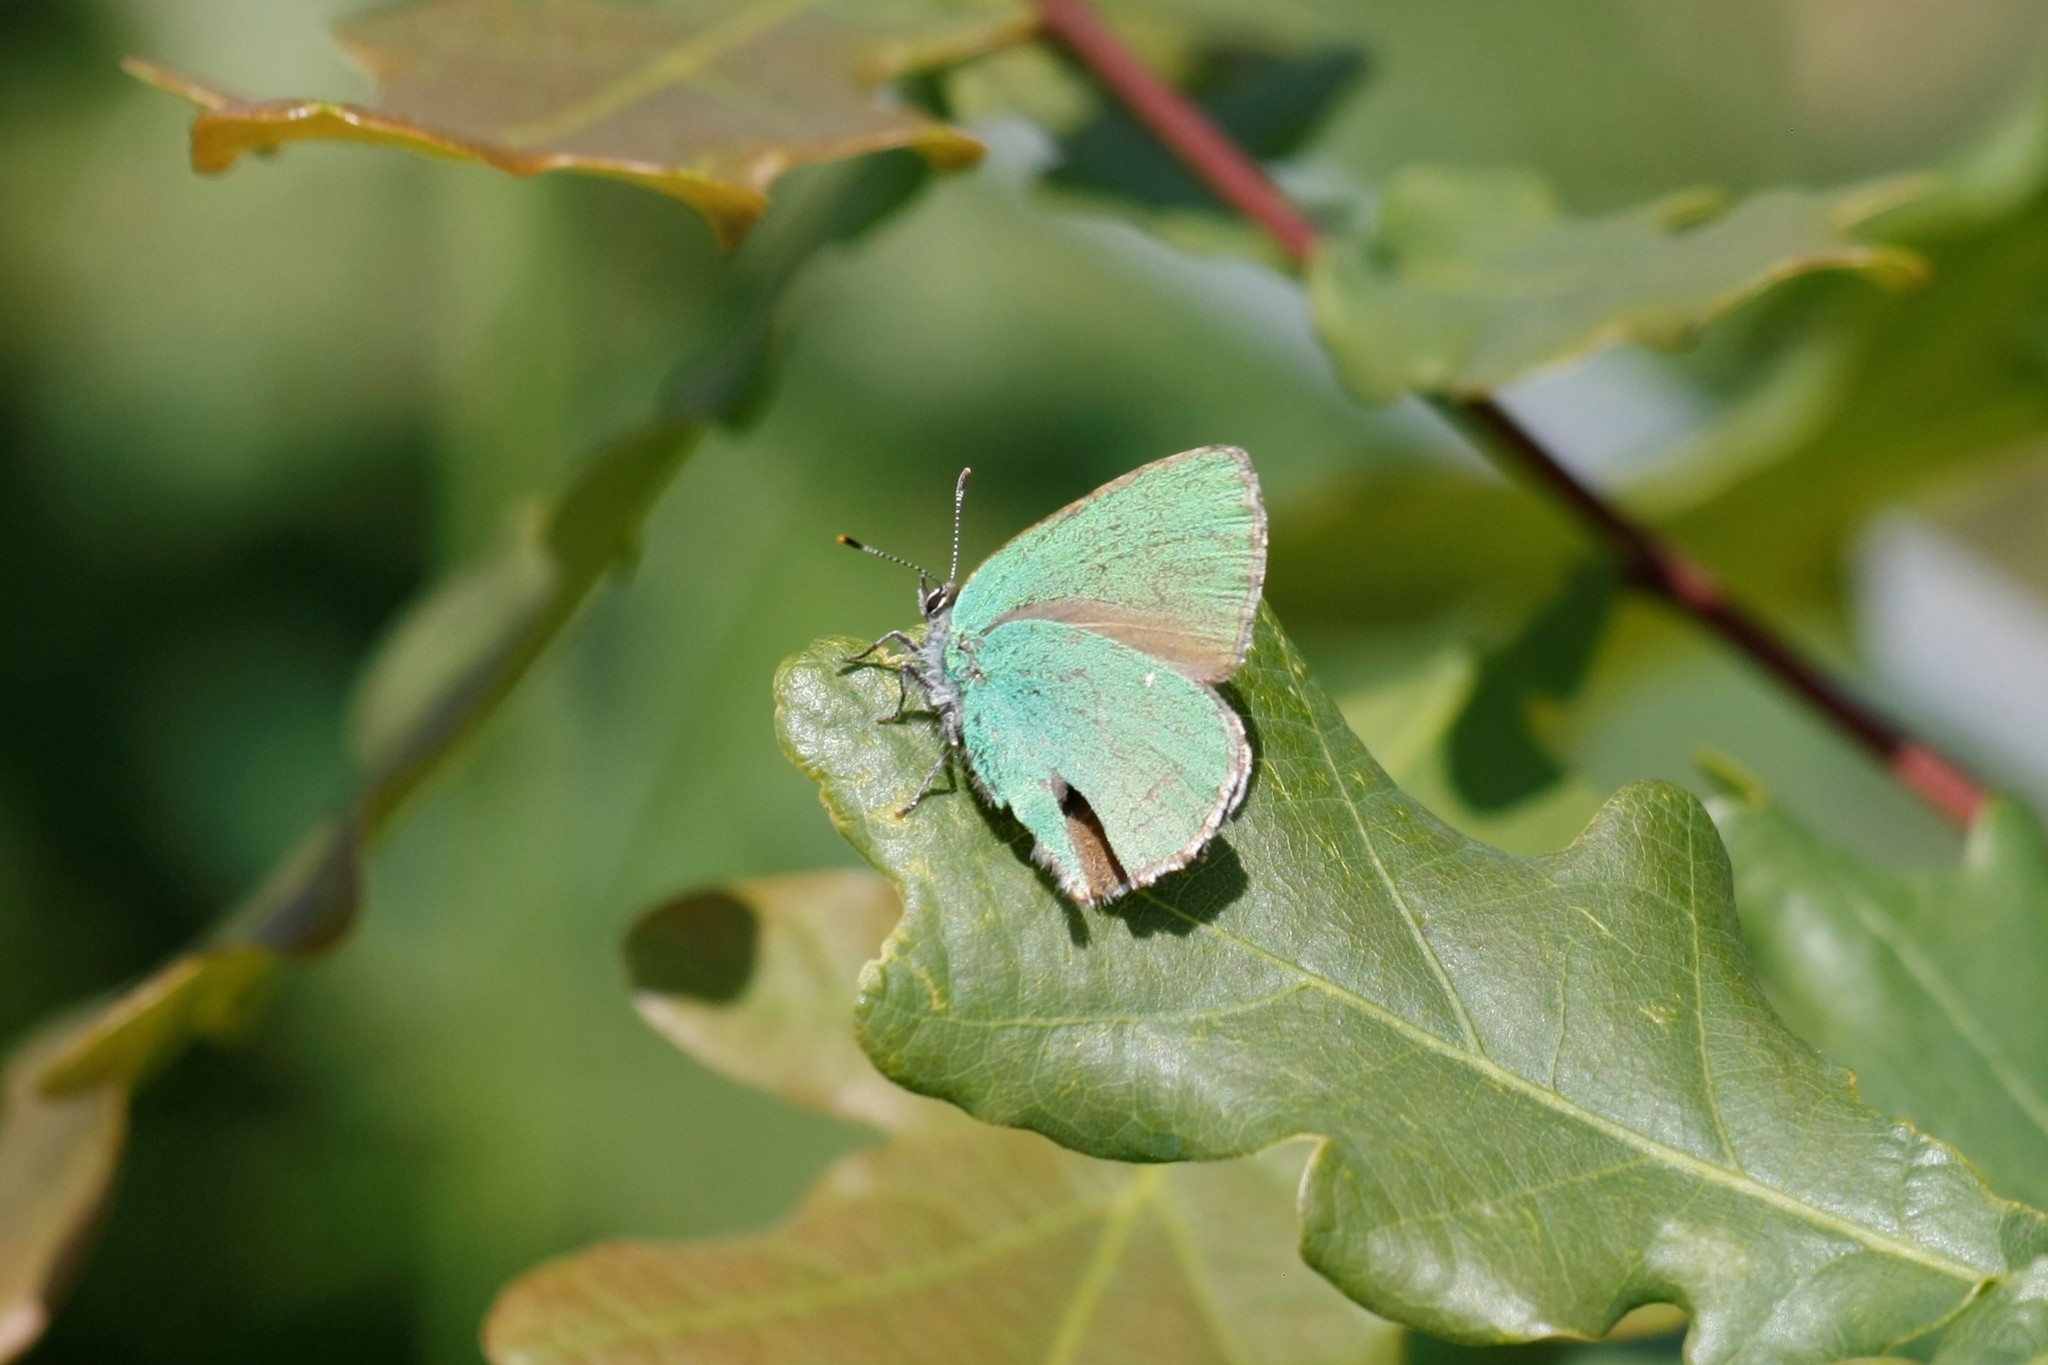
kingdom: Animalia
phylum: Arthropoda
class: Insecta
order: Lepidoptera
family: Lycaenidae
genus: Callophrys
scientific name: Callophrys rubi
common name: Green hairstreak
